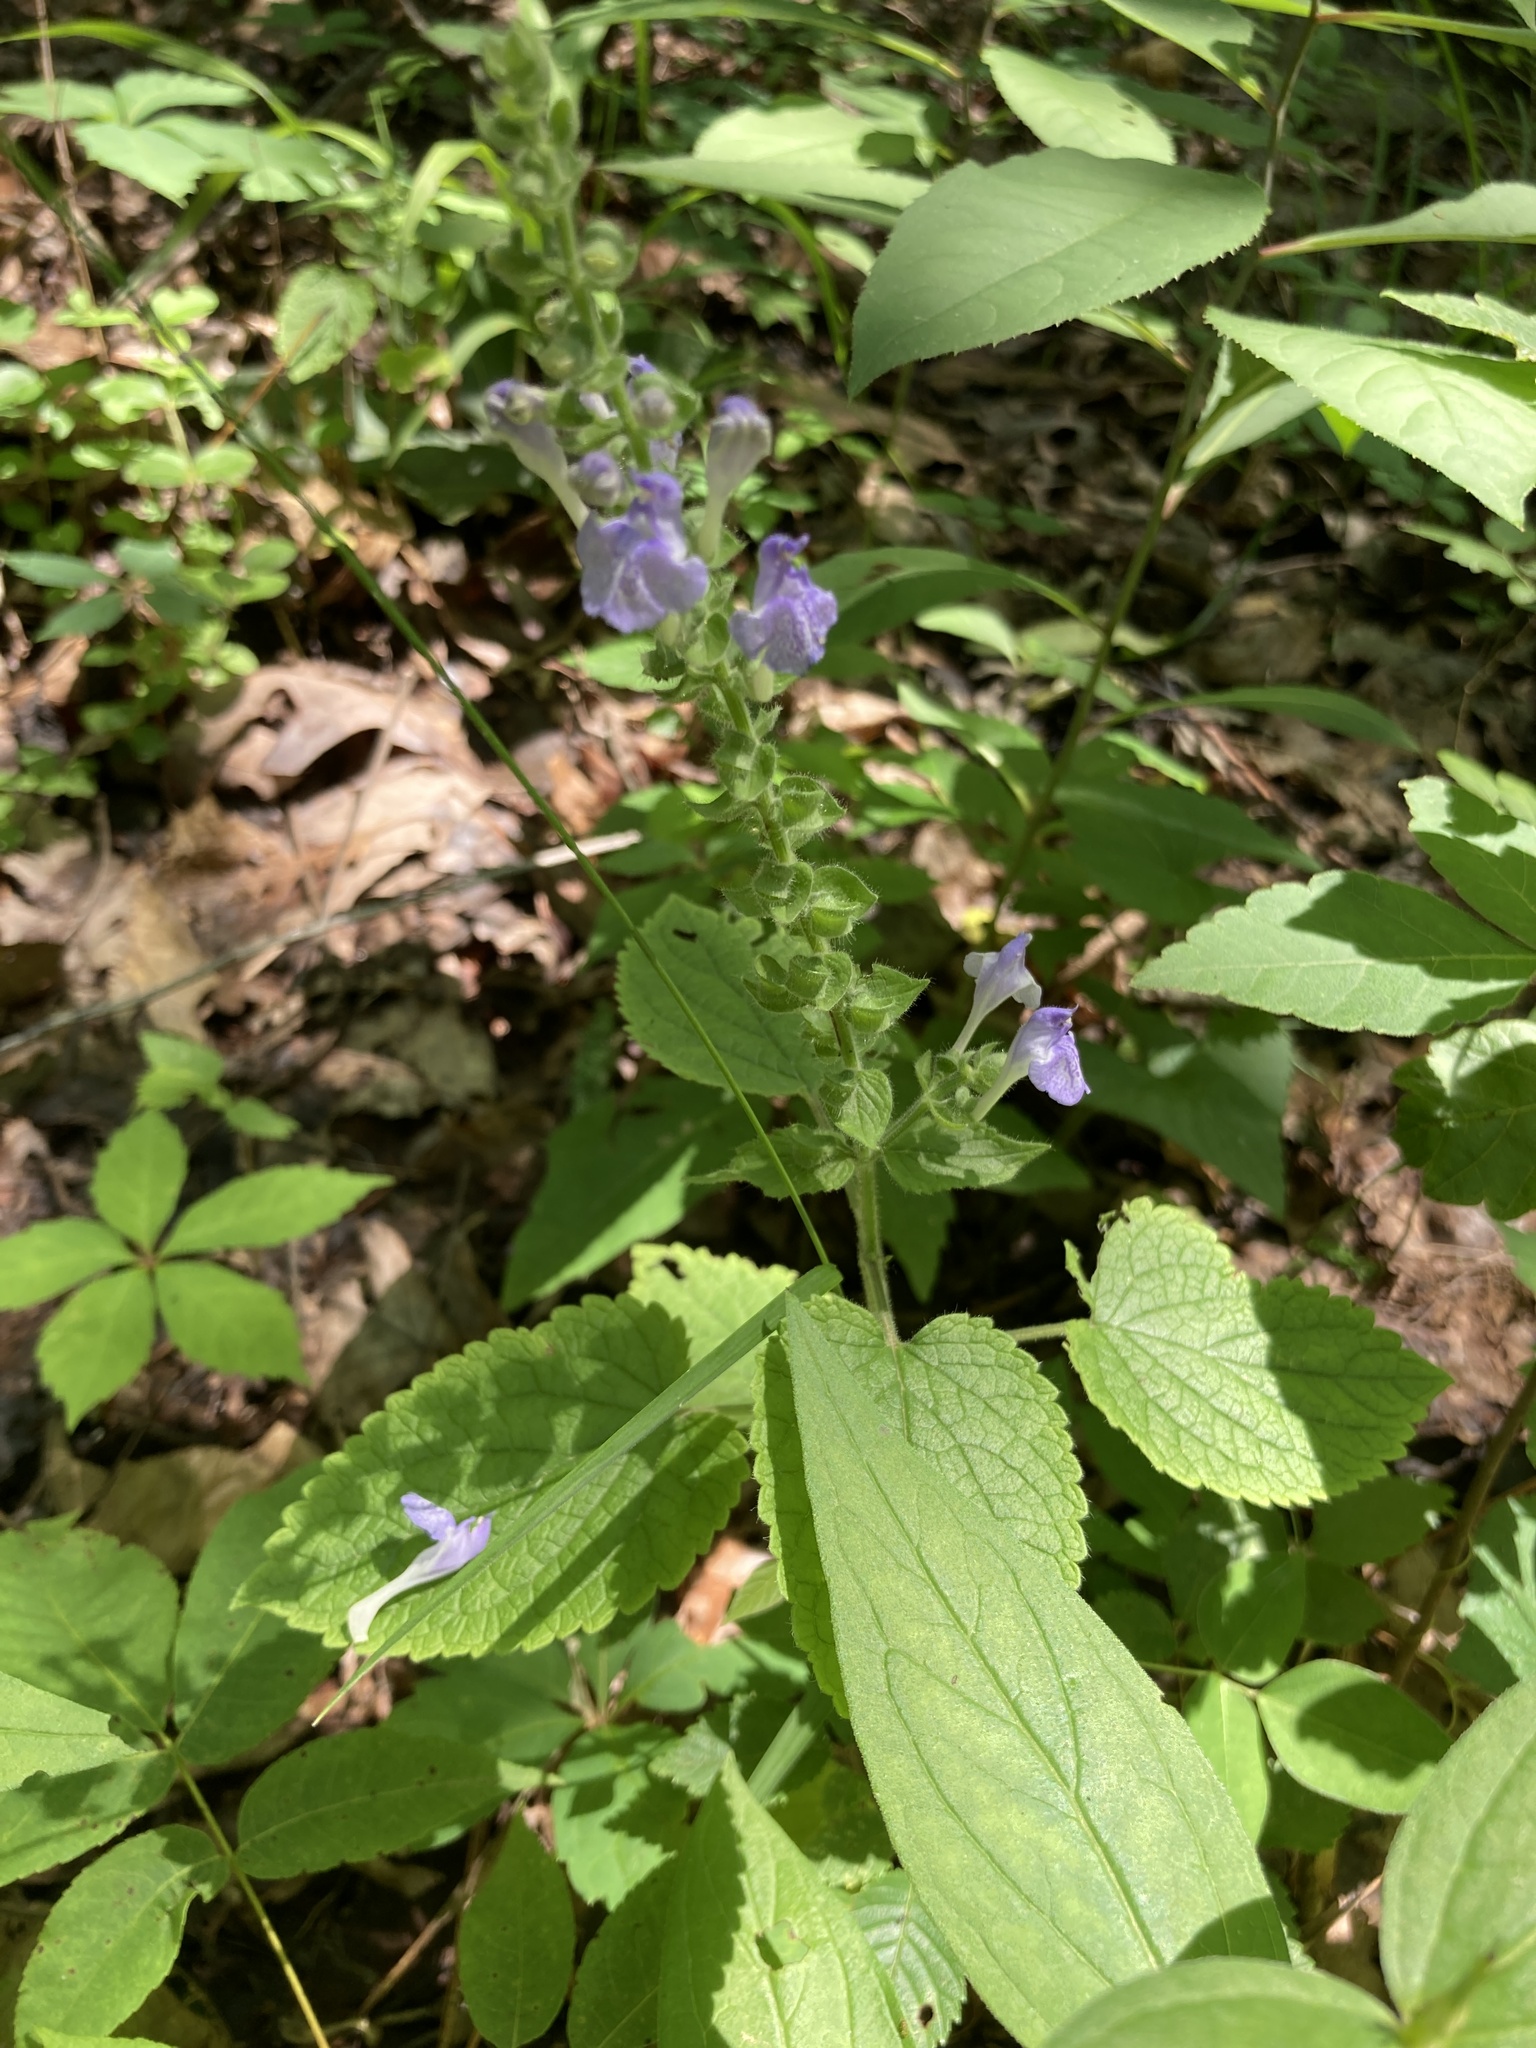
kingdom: Plantae
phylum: Tracheophyta
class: Magnoliopsida
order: Lamiales
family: Lamiaceae
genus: Scutellaria
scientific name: Scutellaria ovata
